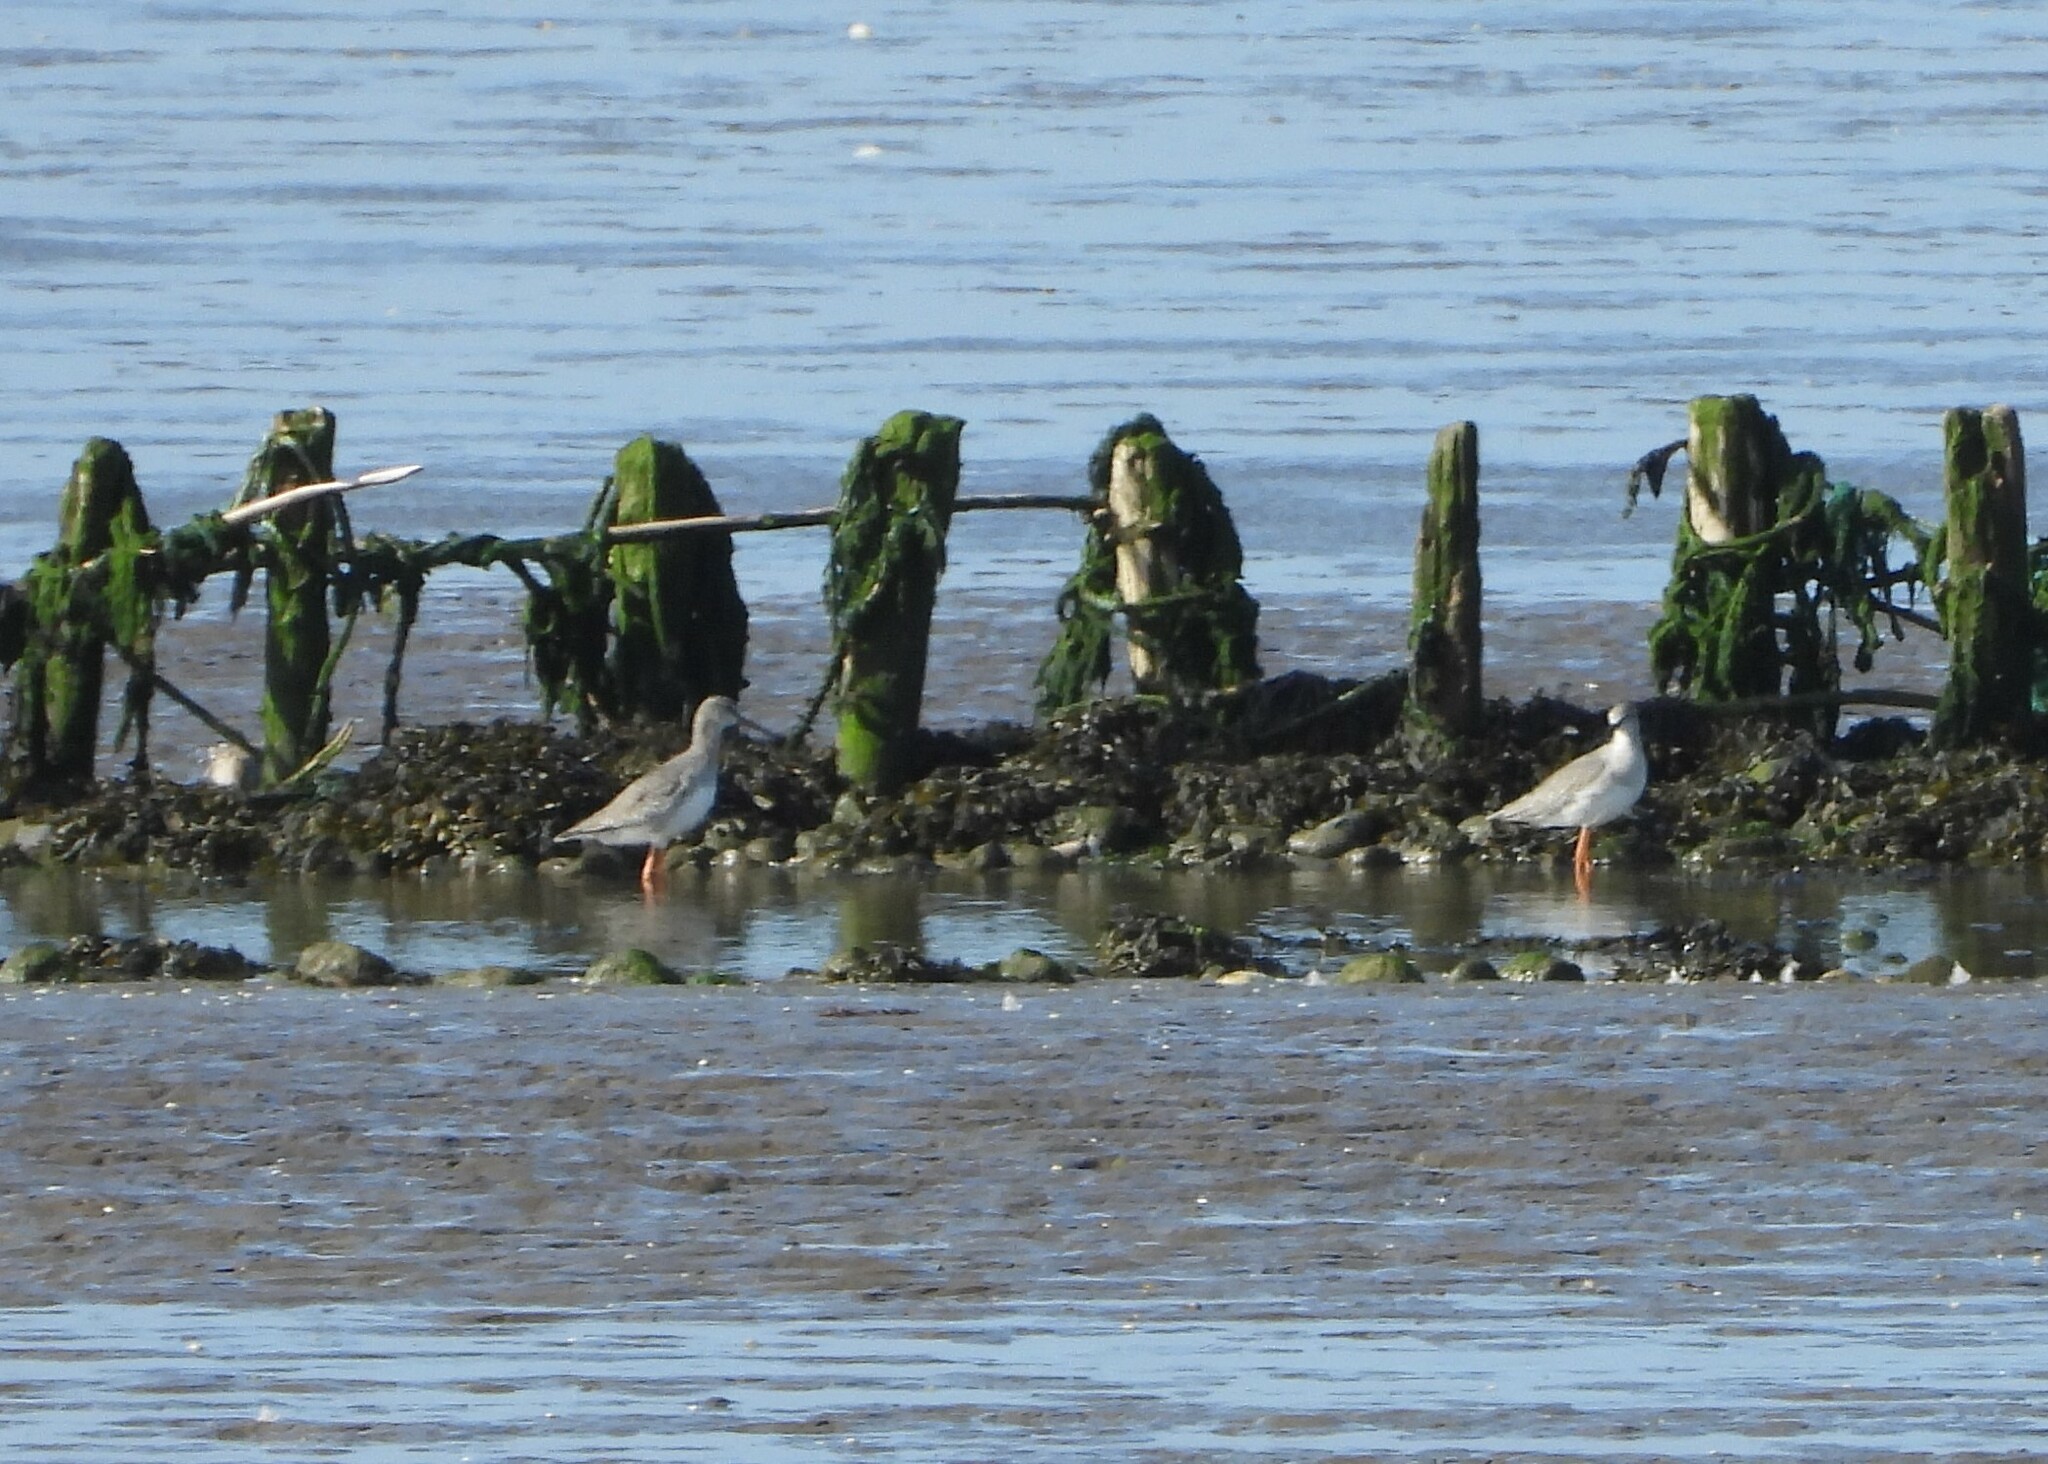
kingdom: Animalia
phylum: Chordata
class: Aves
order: Charadriiformes
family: Scolopacidae
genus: Tringa
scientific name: Tringa totanus
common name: Common redshank
